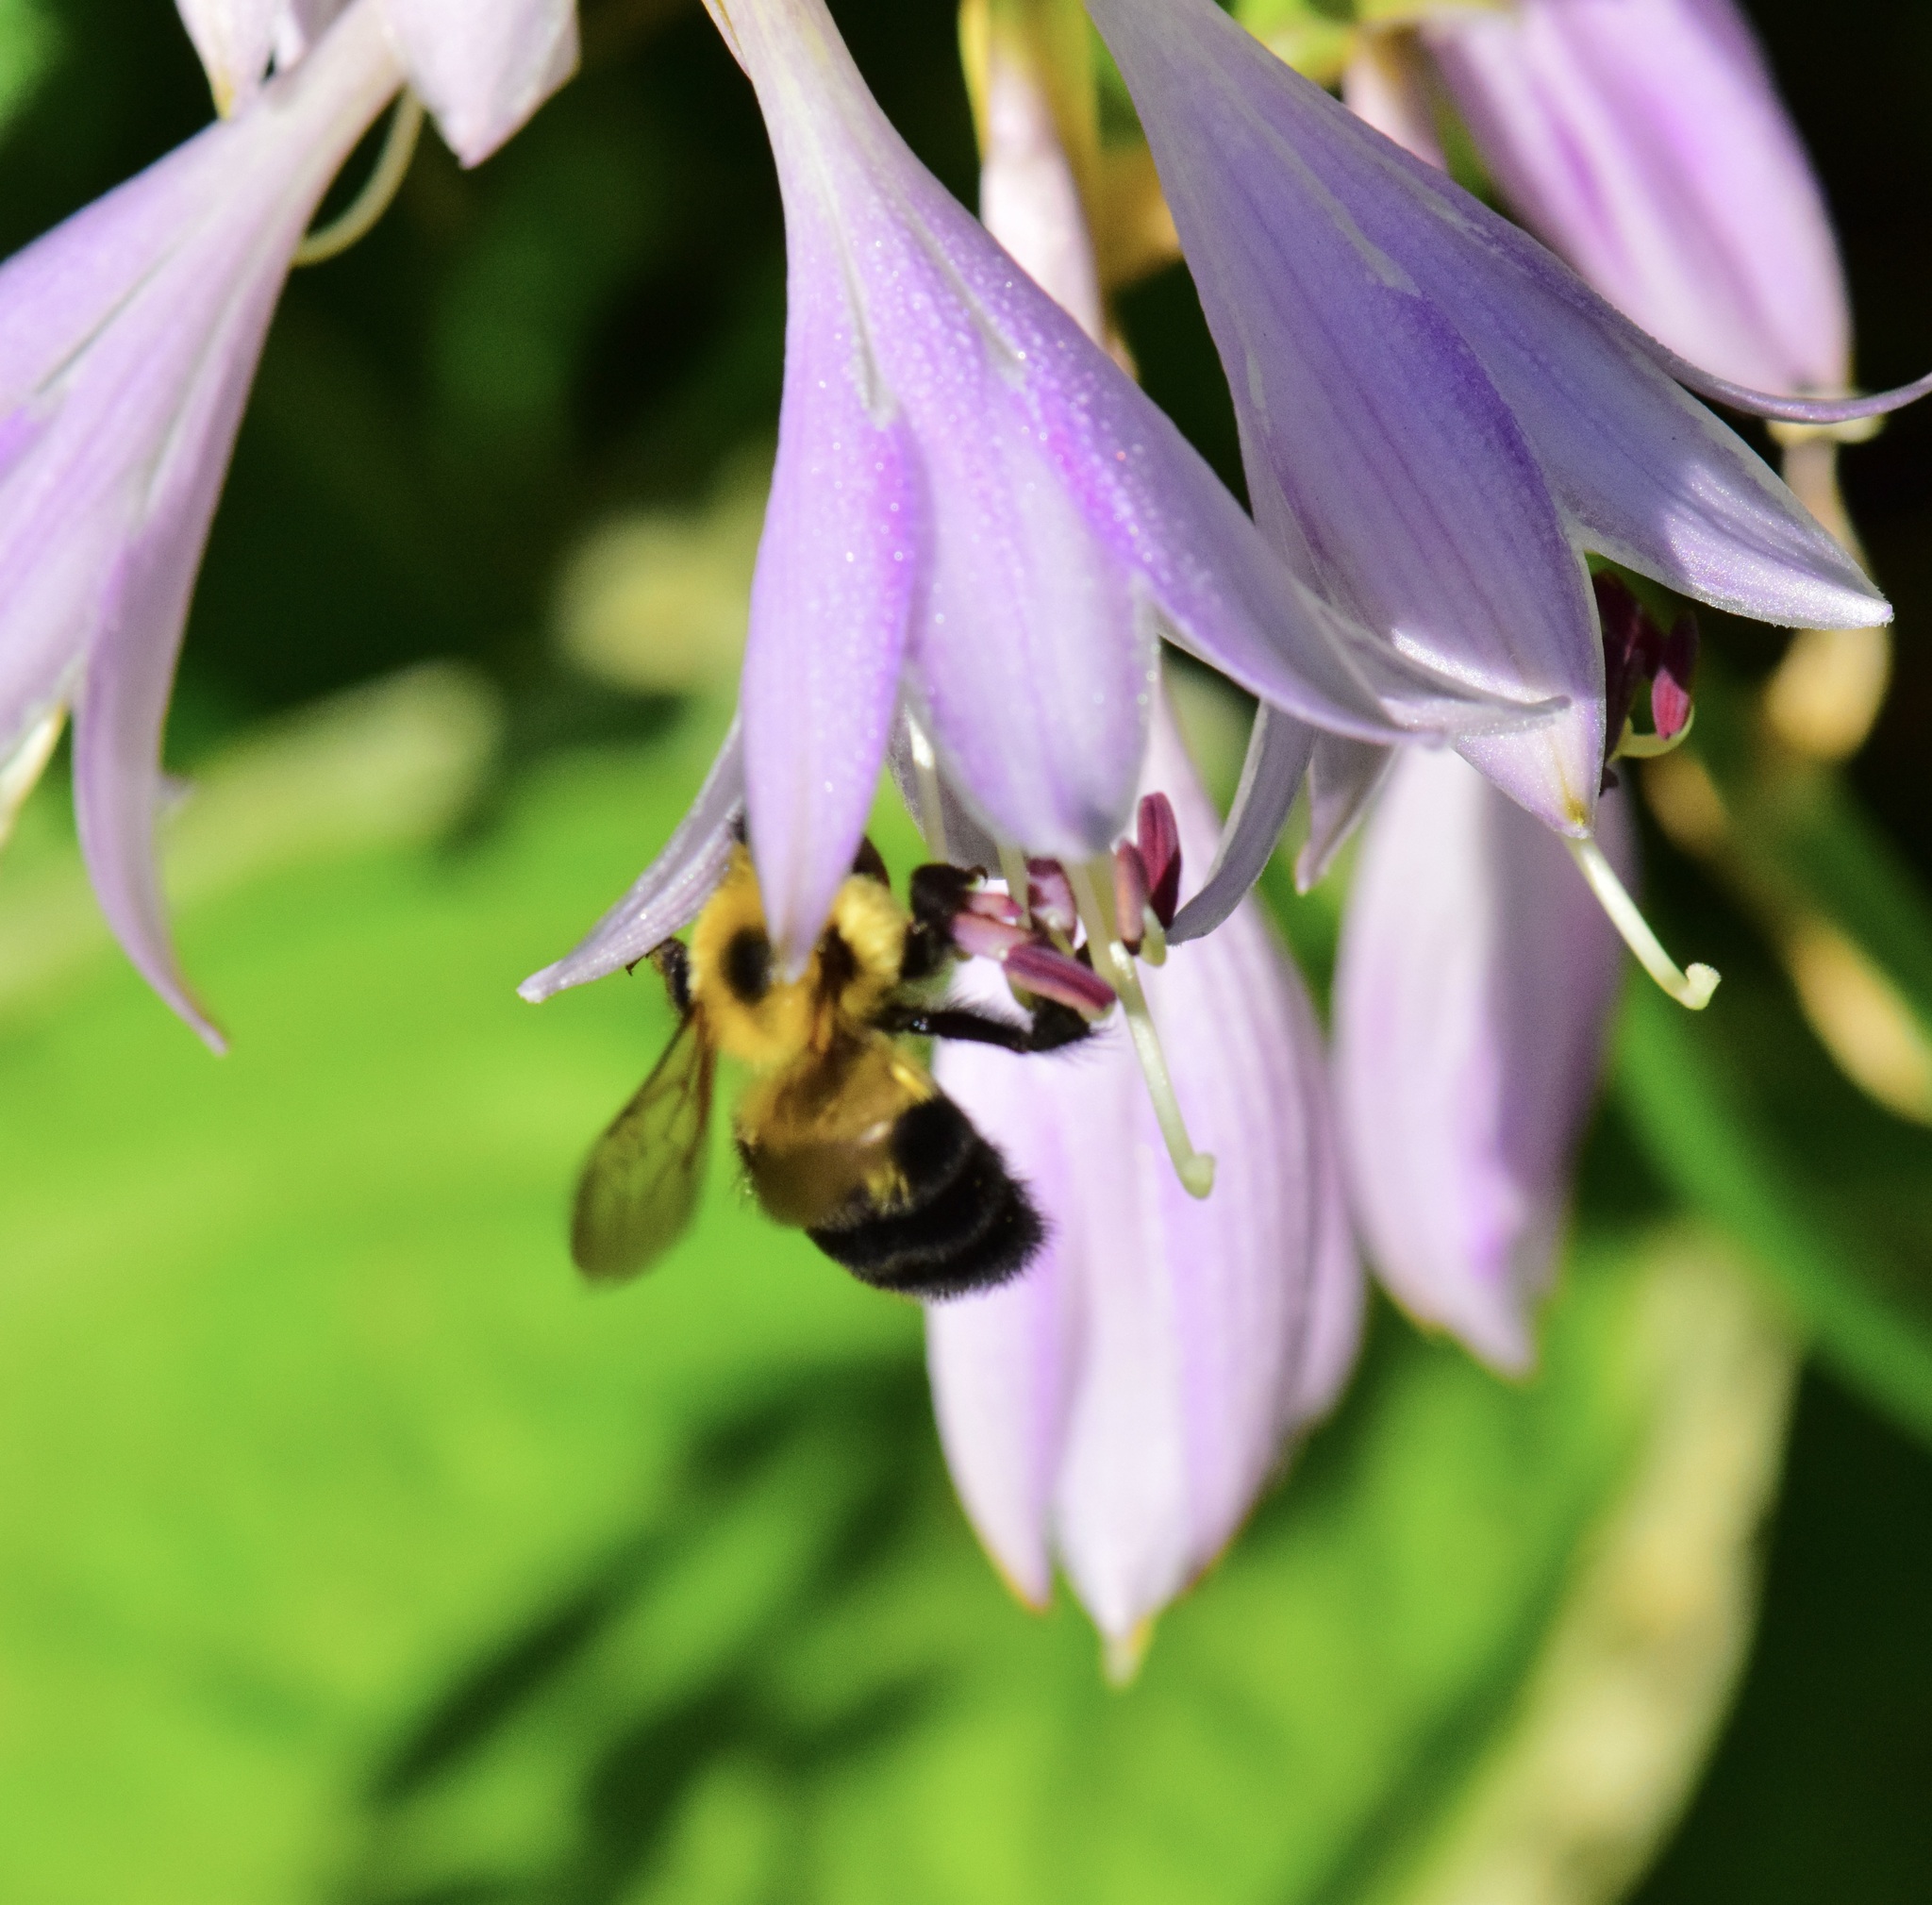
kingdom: Animalia
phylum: Arthropoda
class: Insecta
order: Hymenoptera
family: Apidae
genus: Bombus
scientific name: Bombus bimaculatus
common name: Two-spotted bumble bee
